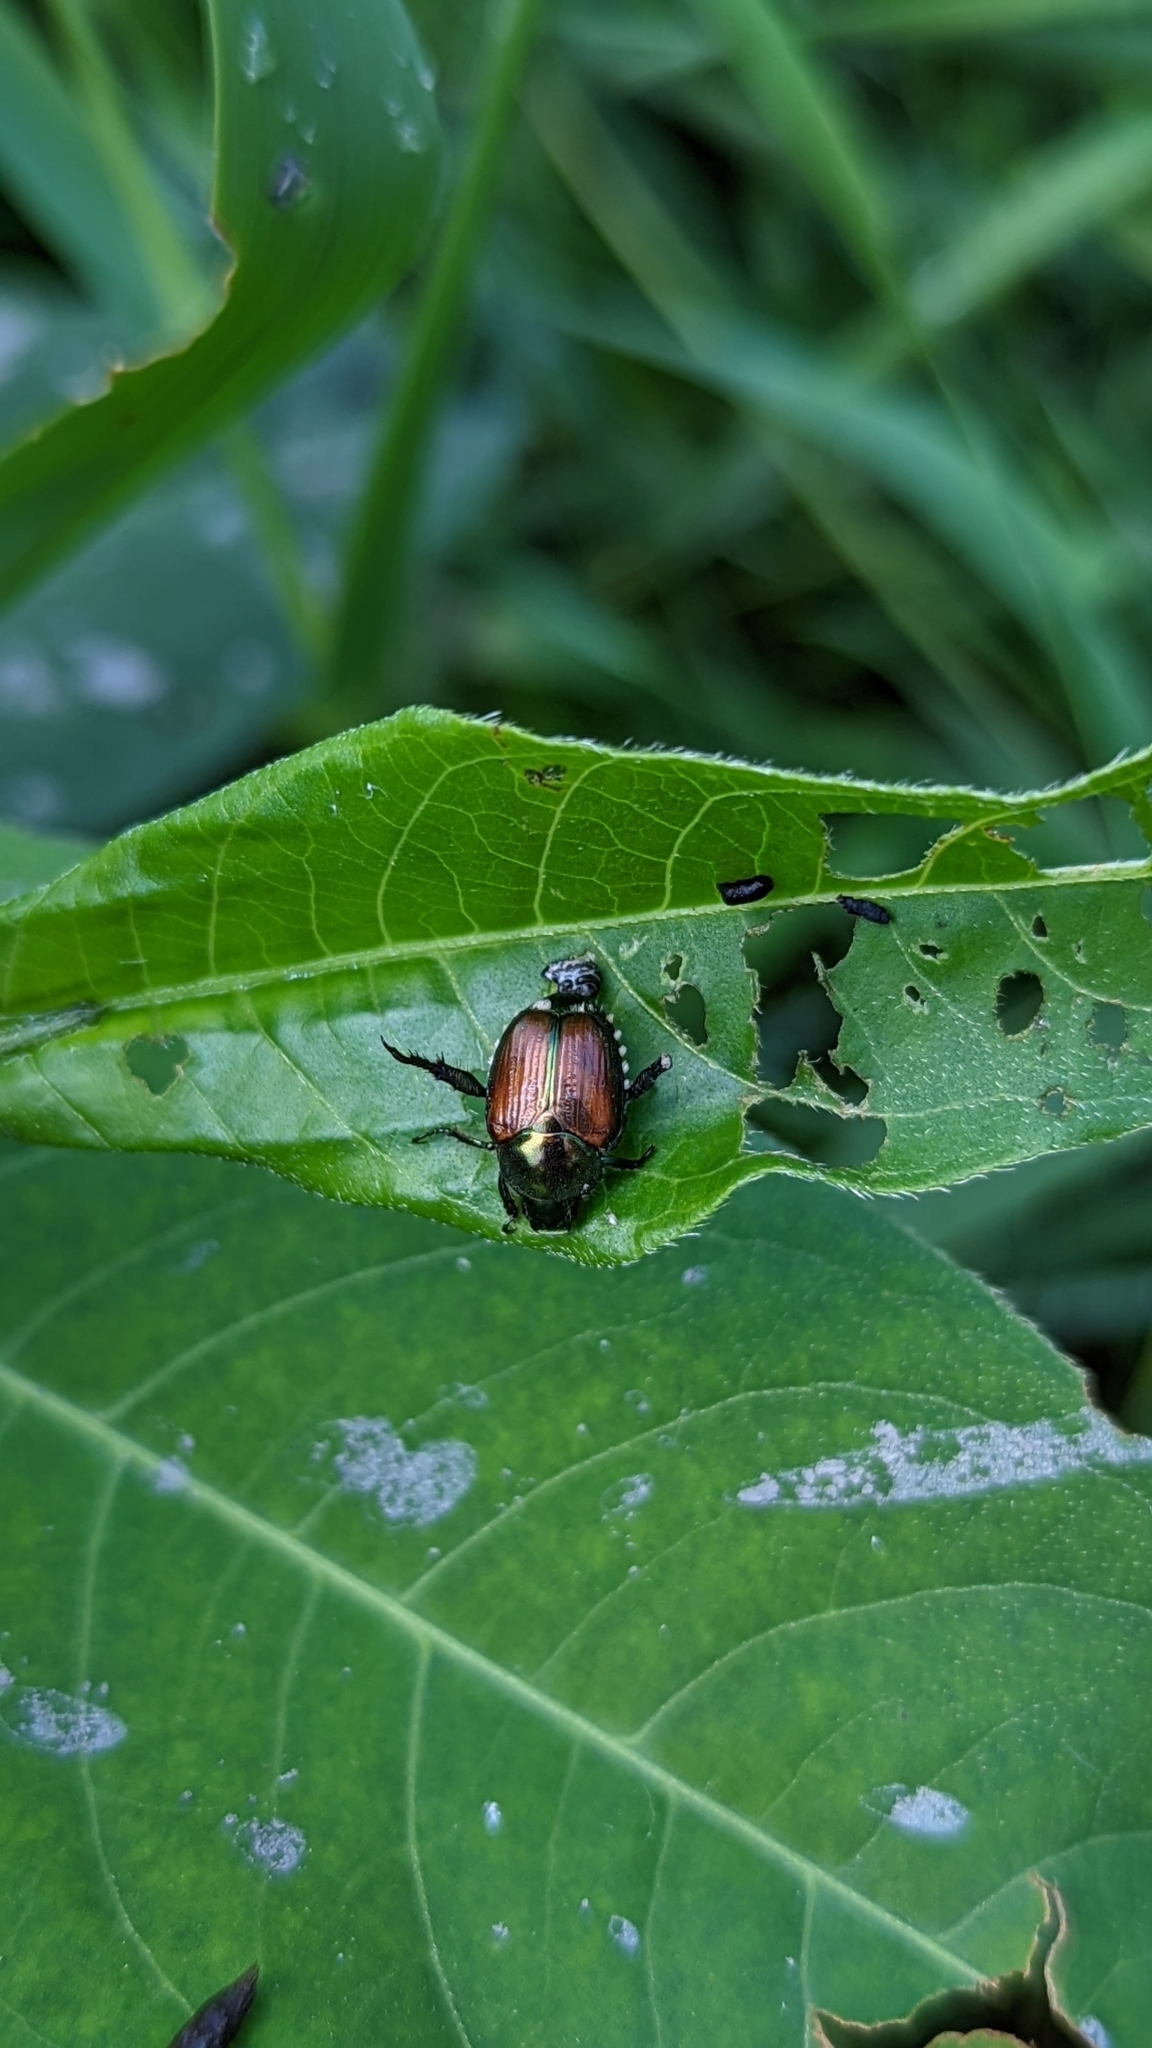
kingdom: Animalia
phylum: Arthropoda
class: Insecta
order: Coleoptera
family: Scarabaeidae
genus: Popillia
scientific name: Popillia japonica
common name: Japanese beetle
